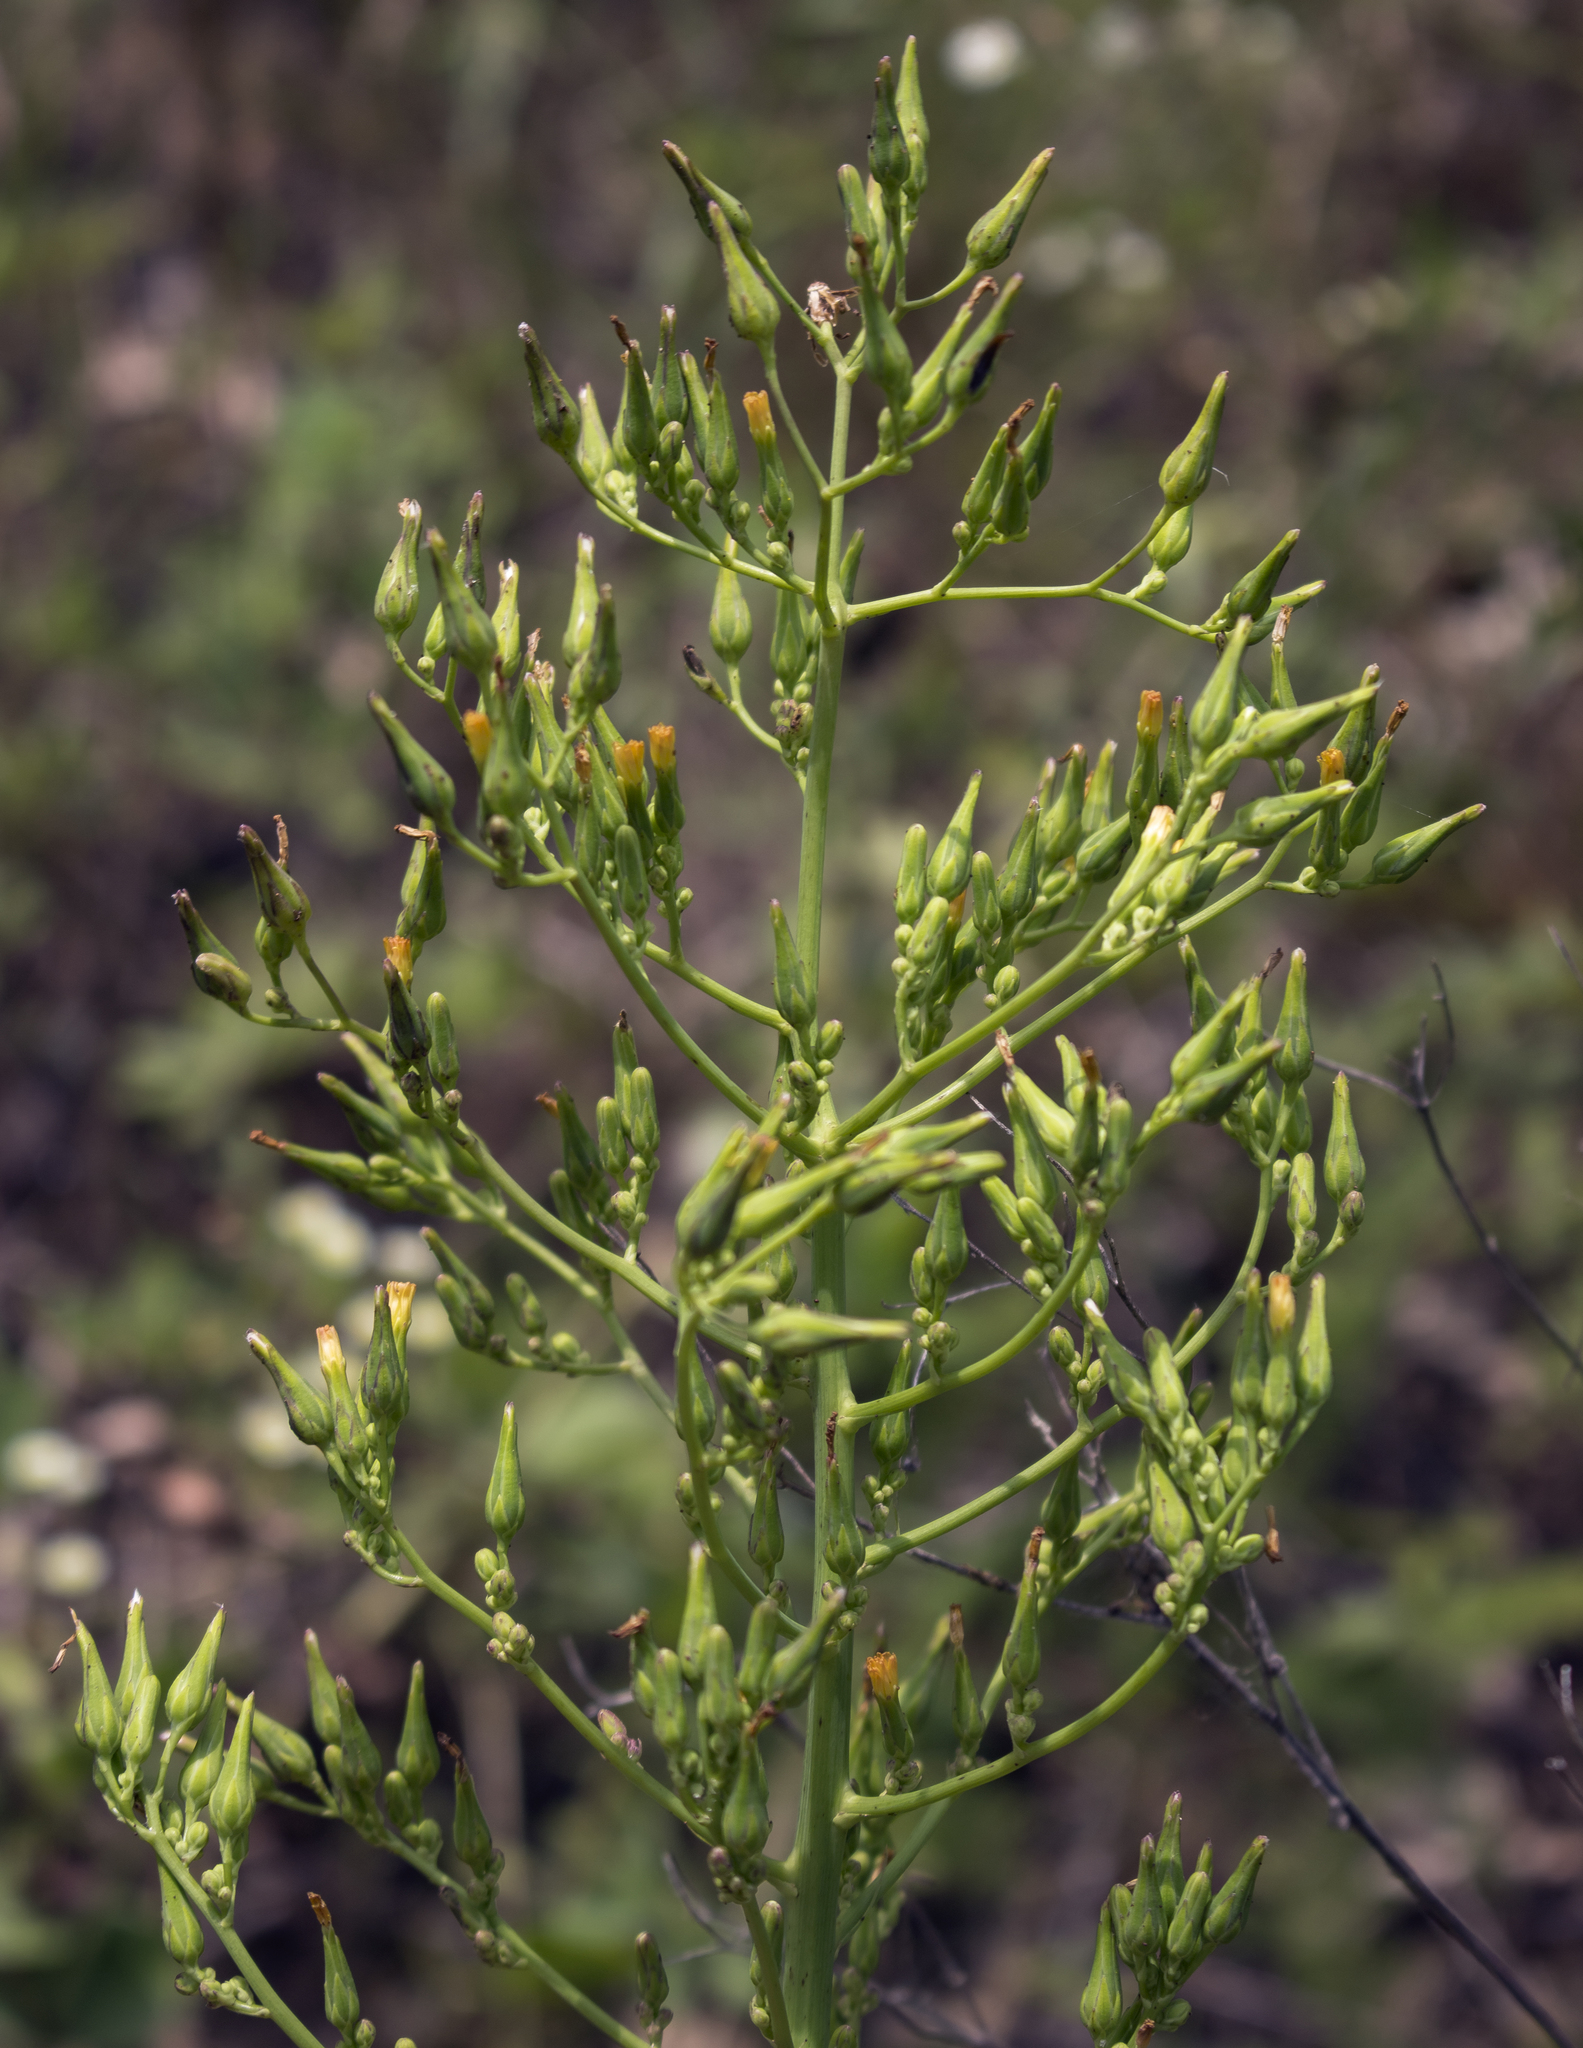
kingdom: Plantae
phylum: Tracheophyta
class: Magnoliopsida
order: Asterales
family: Asteraceae
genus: Lactuca
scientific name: Lactuca canadensis
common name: Canada lettuce
